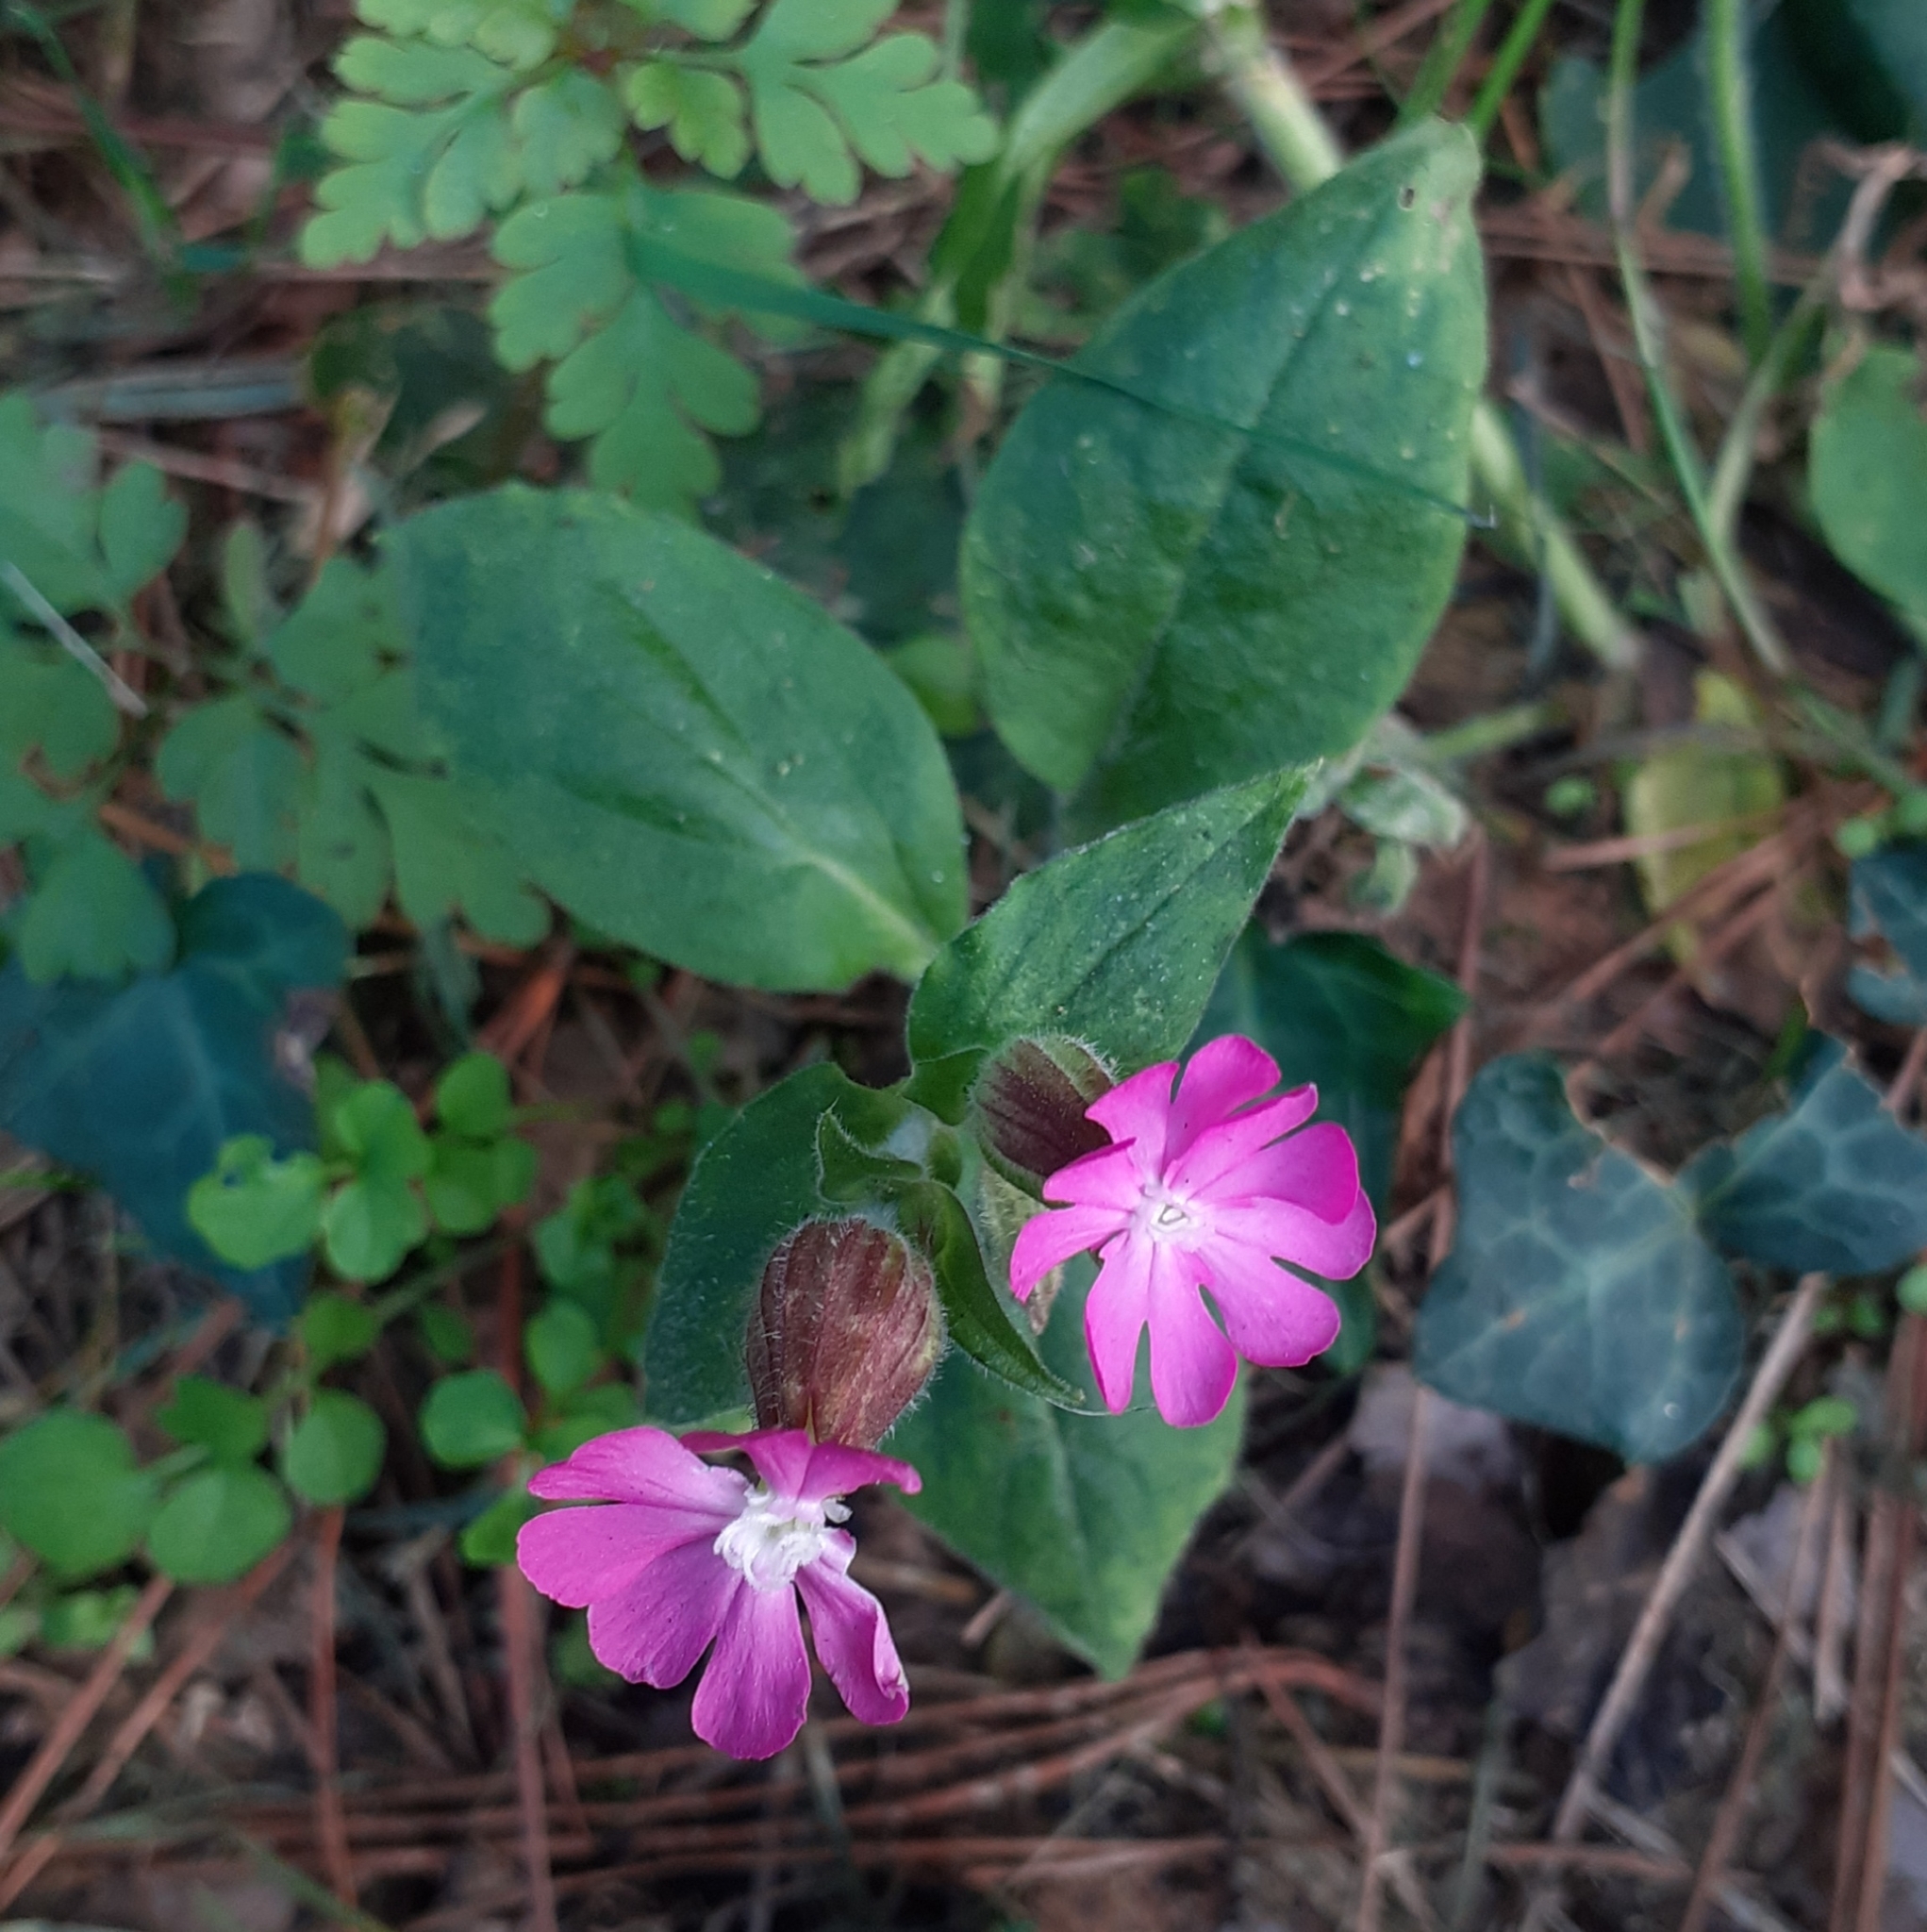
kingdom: Plantae
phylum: Tracheophyta
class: Magnoliopsida
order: Caryophyllales
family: Caryophyllaceae
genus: Silene
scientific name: Silene dioica
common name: Red campion
